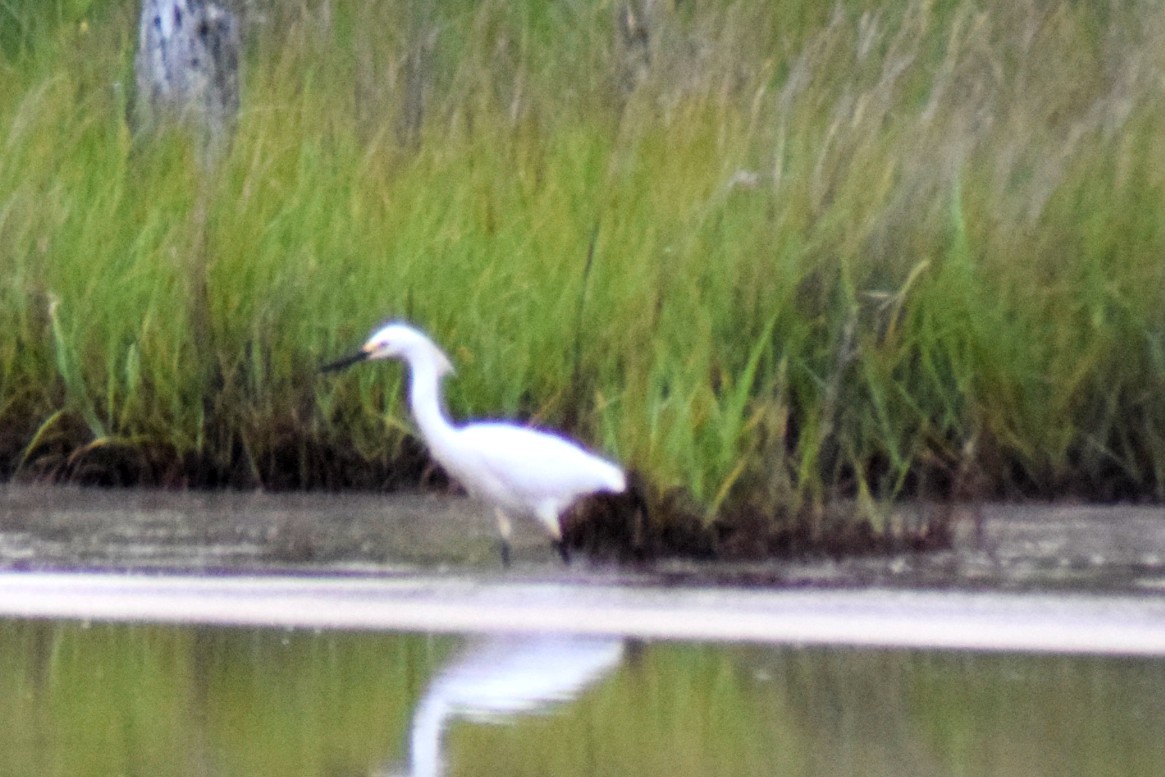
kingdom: Animalia
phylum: Chordata
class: Aves
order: Pelecaniformes
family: Ardeidae
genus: Egretta
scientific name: Egretta thula
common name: Snowy egret
